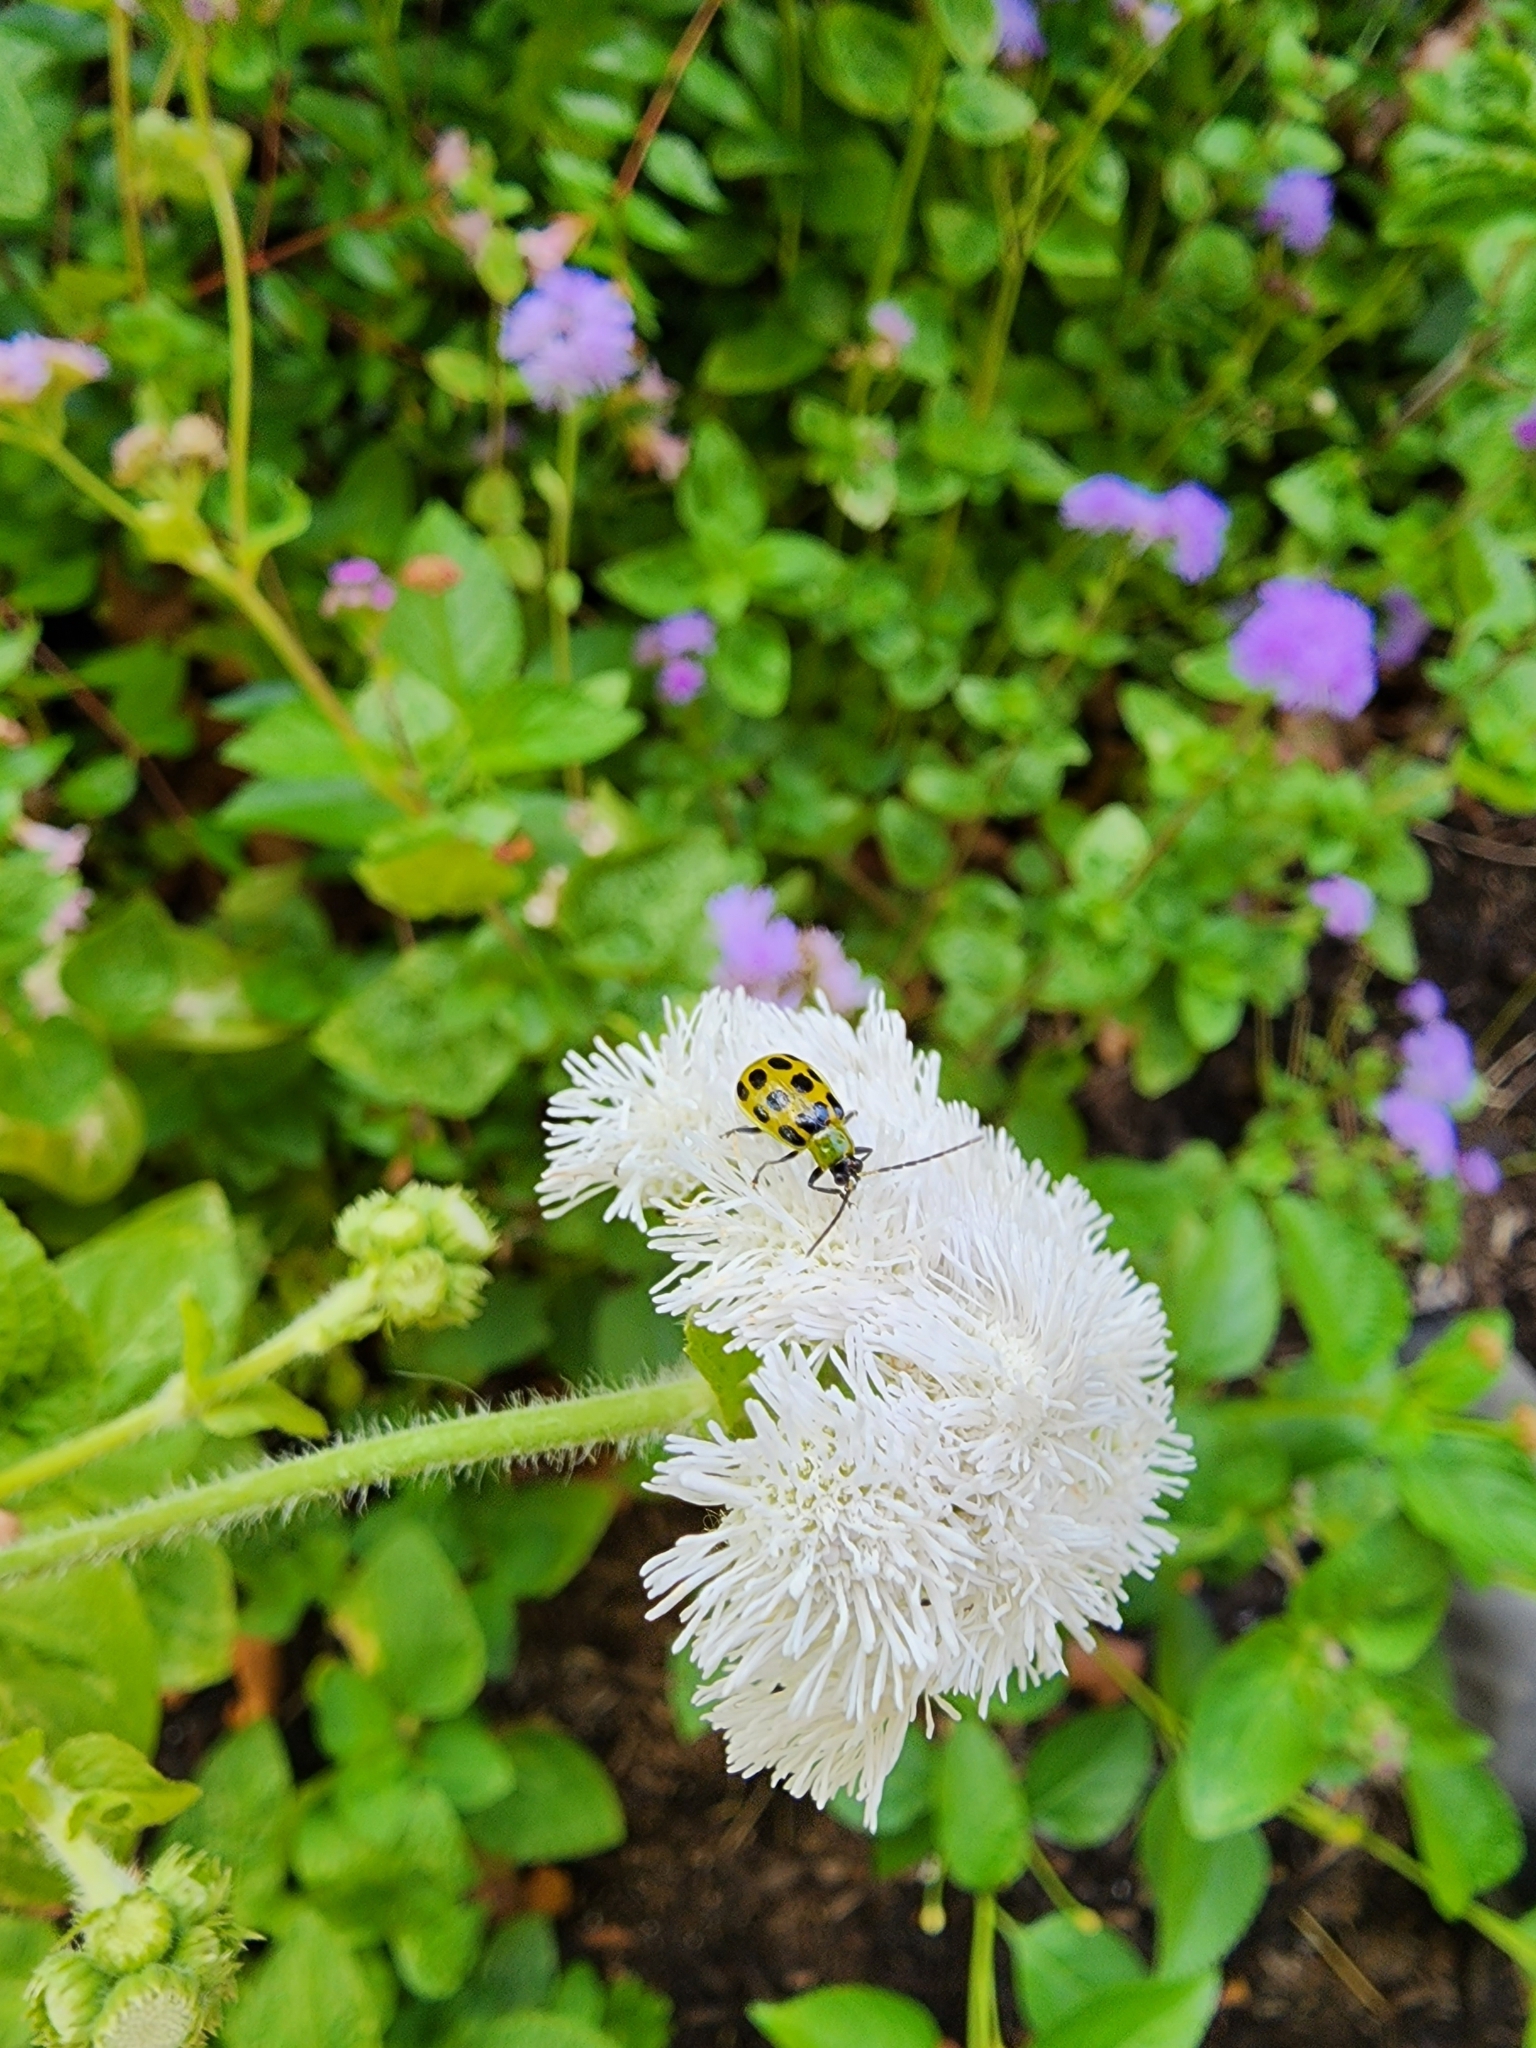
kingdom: Animalia
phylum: Arthropoda
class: Insecta
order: Coleoptera
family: Chrysomelidae
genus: Diabrotica
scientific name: Diabrotica undecimpunctata
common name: Spotted cucumber beetle
